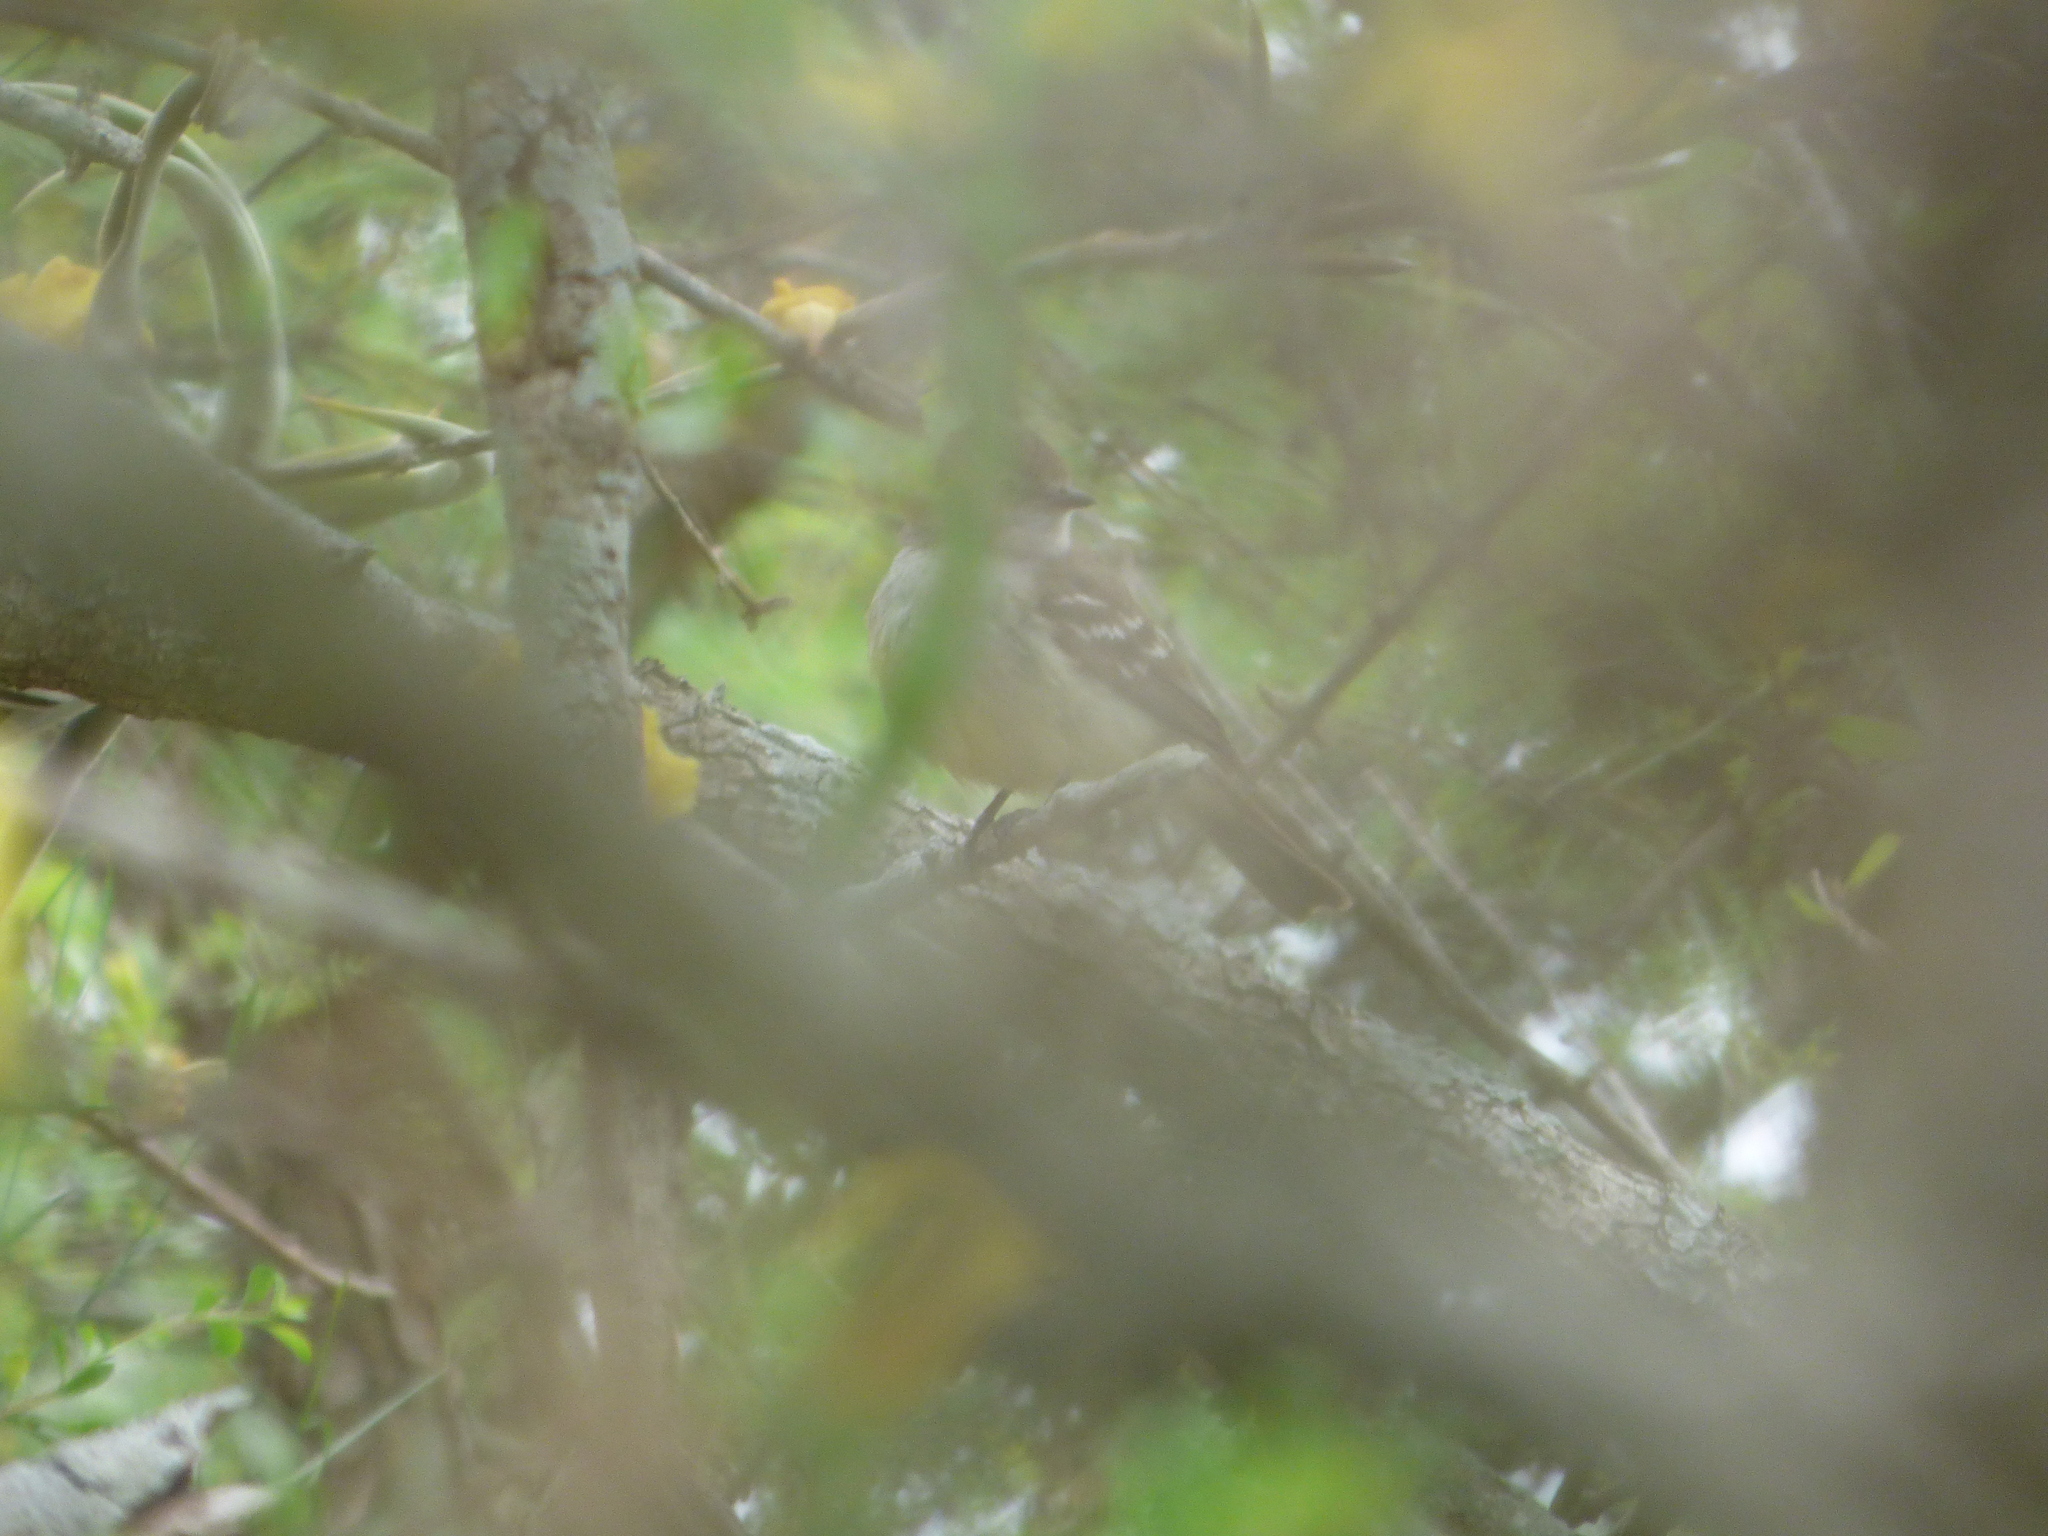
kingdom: Animalia
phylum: Chordata
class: Aves
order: Passeriformes
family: Tyrannidae
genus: Sublegatus
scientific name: Sublegatus modestus
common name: Southern scrub flycatcher
